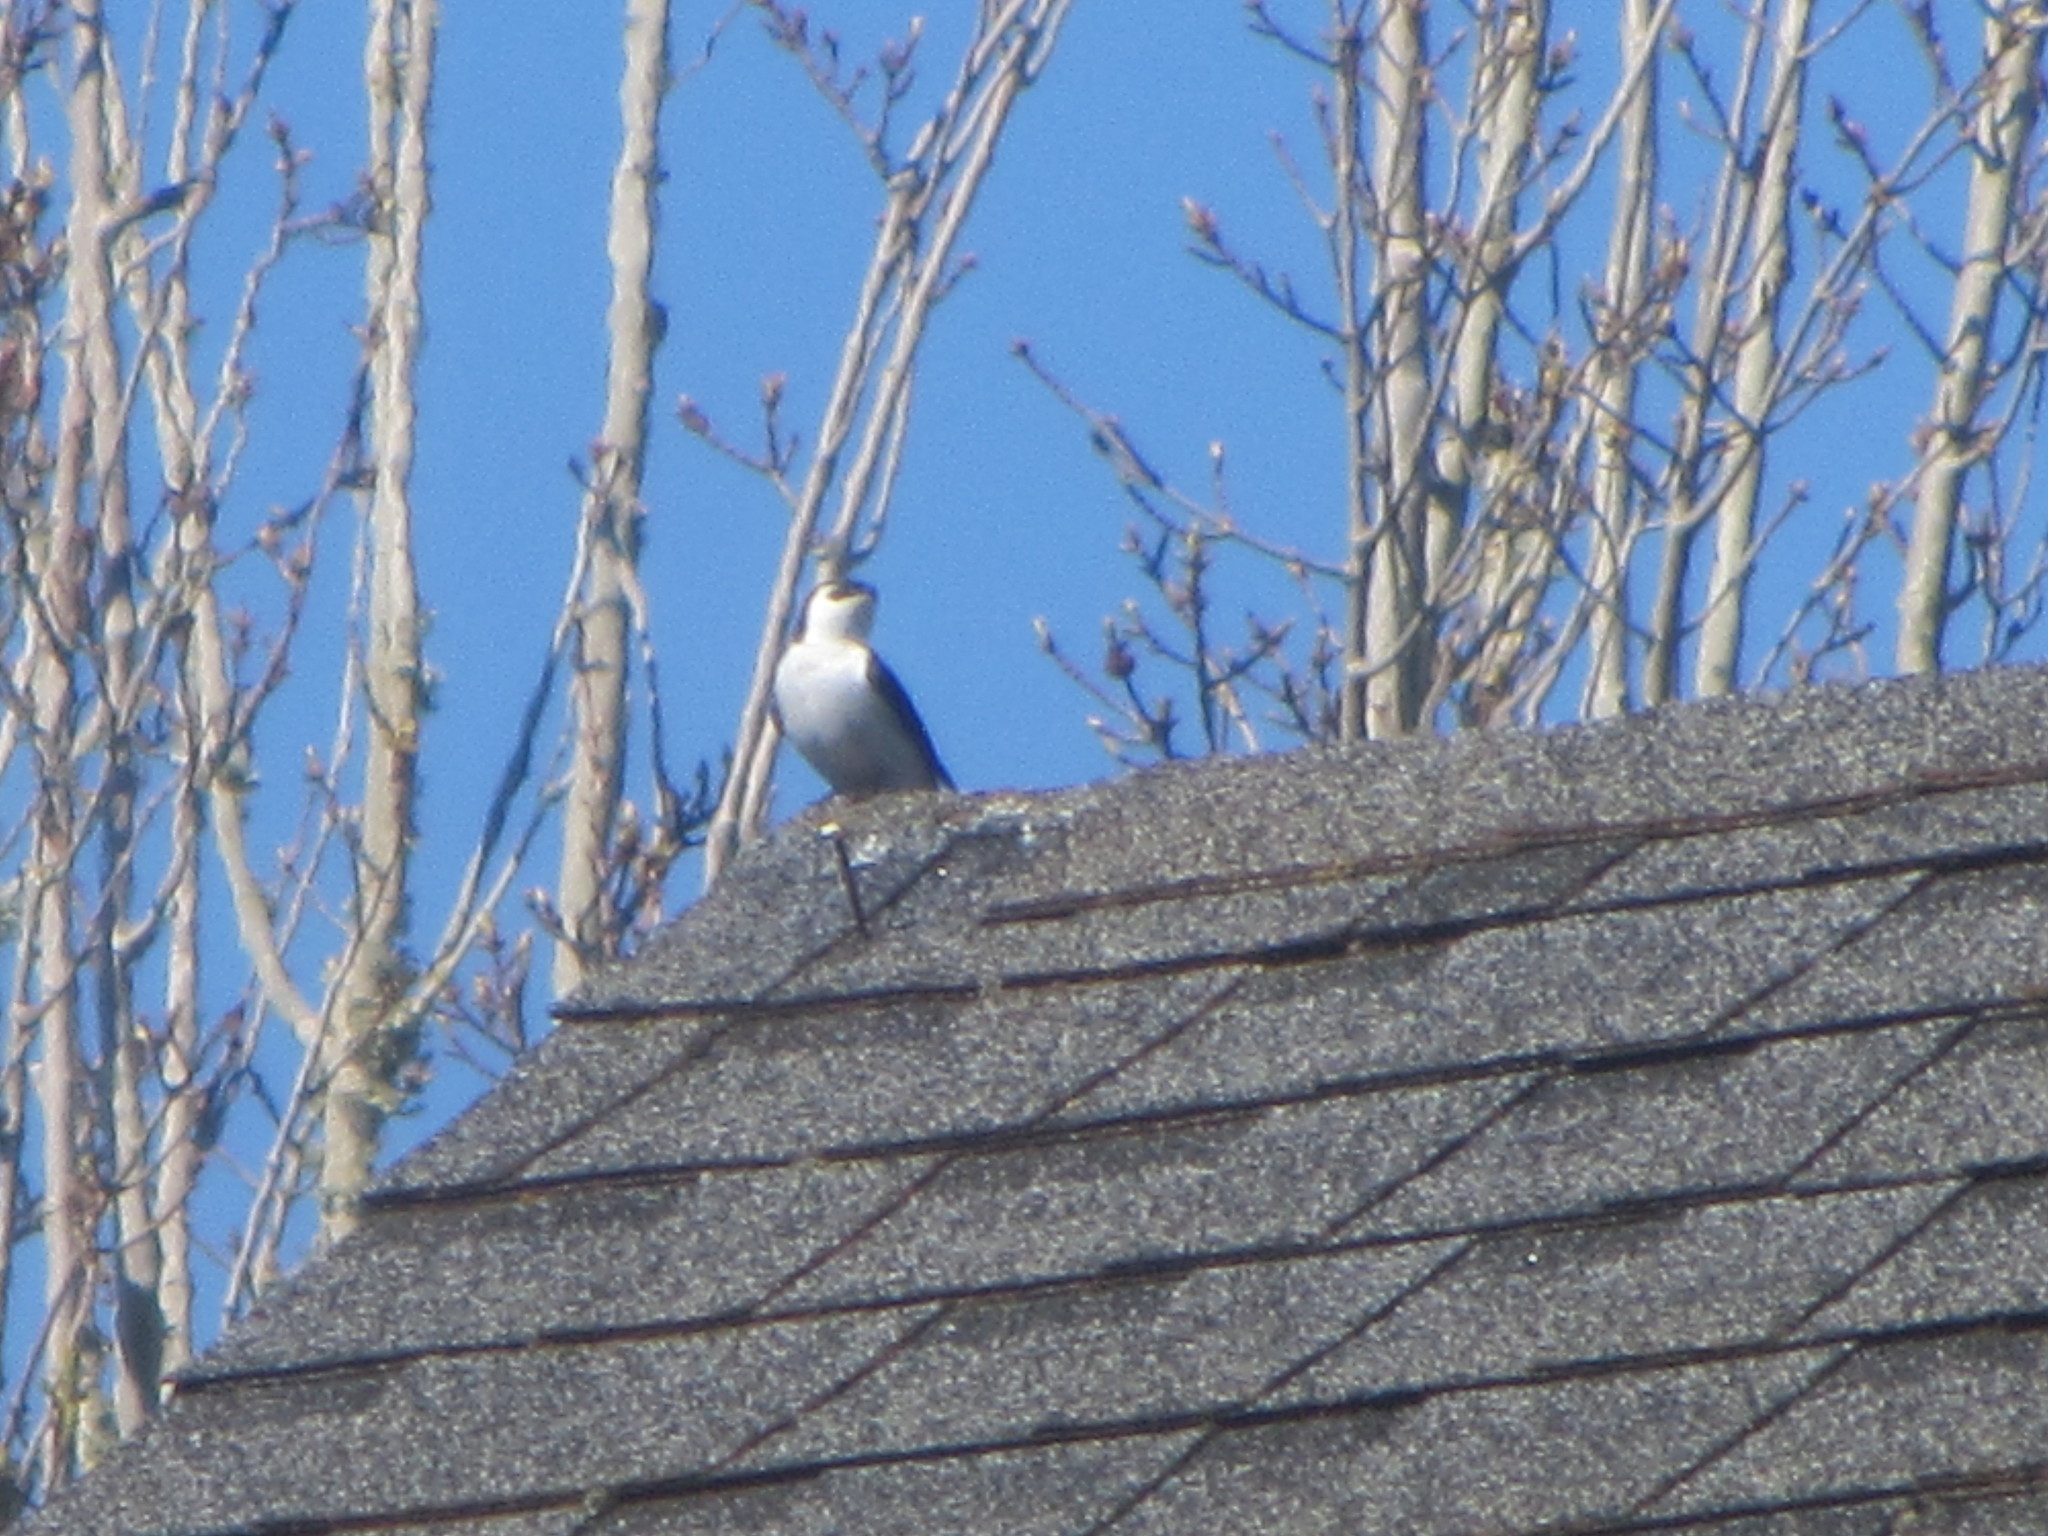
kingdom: Animalia
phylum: Chordata
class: Aves
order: Passeriformes
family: Hirundinidae
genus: Tachycineta
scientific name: Tachycineta thalassina
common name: Violet-green swallow
